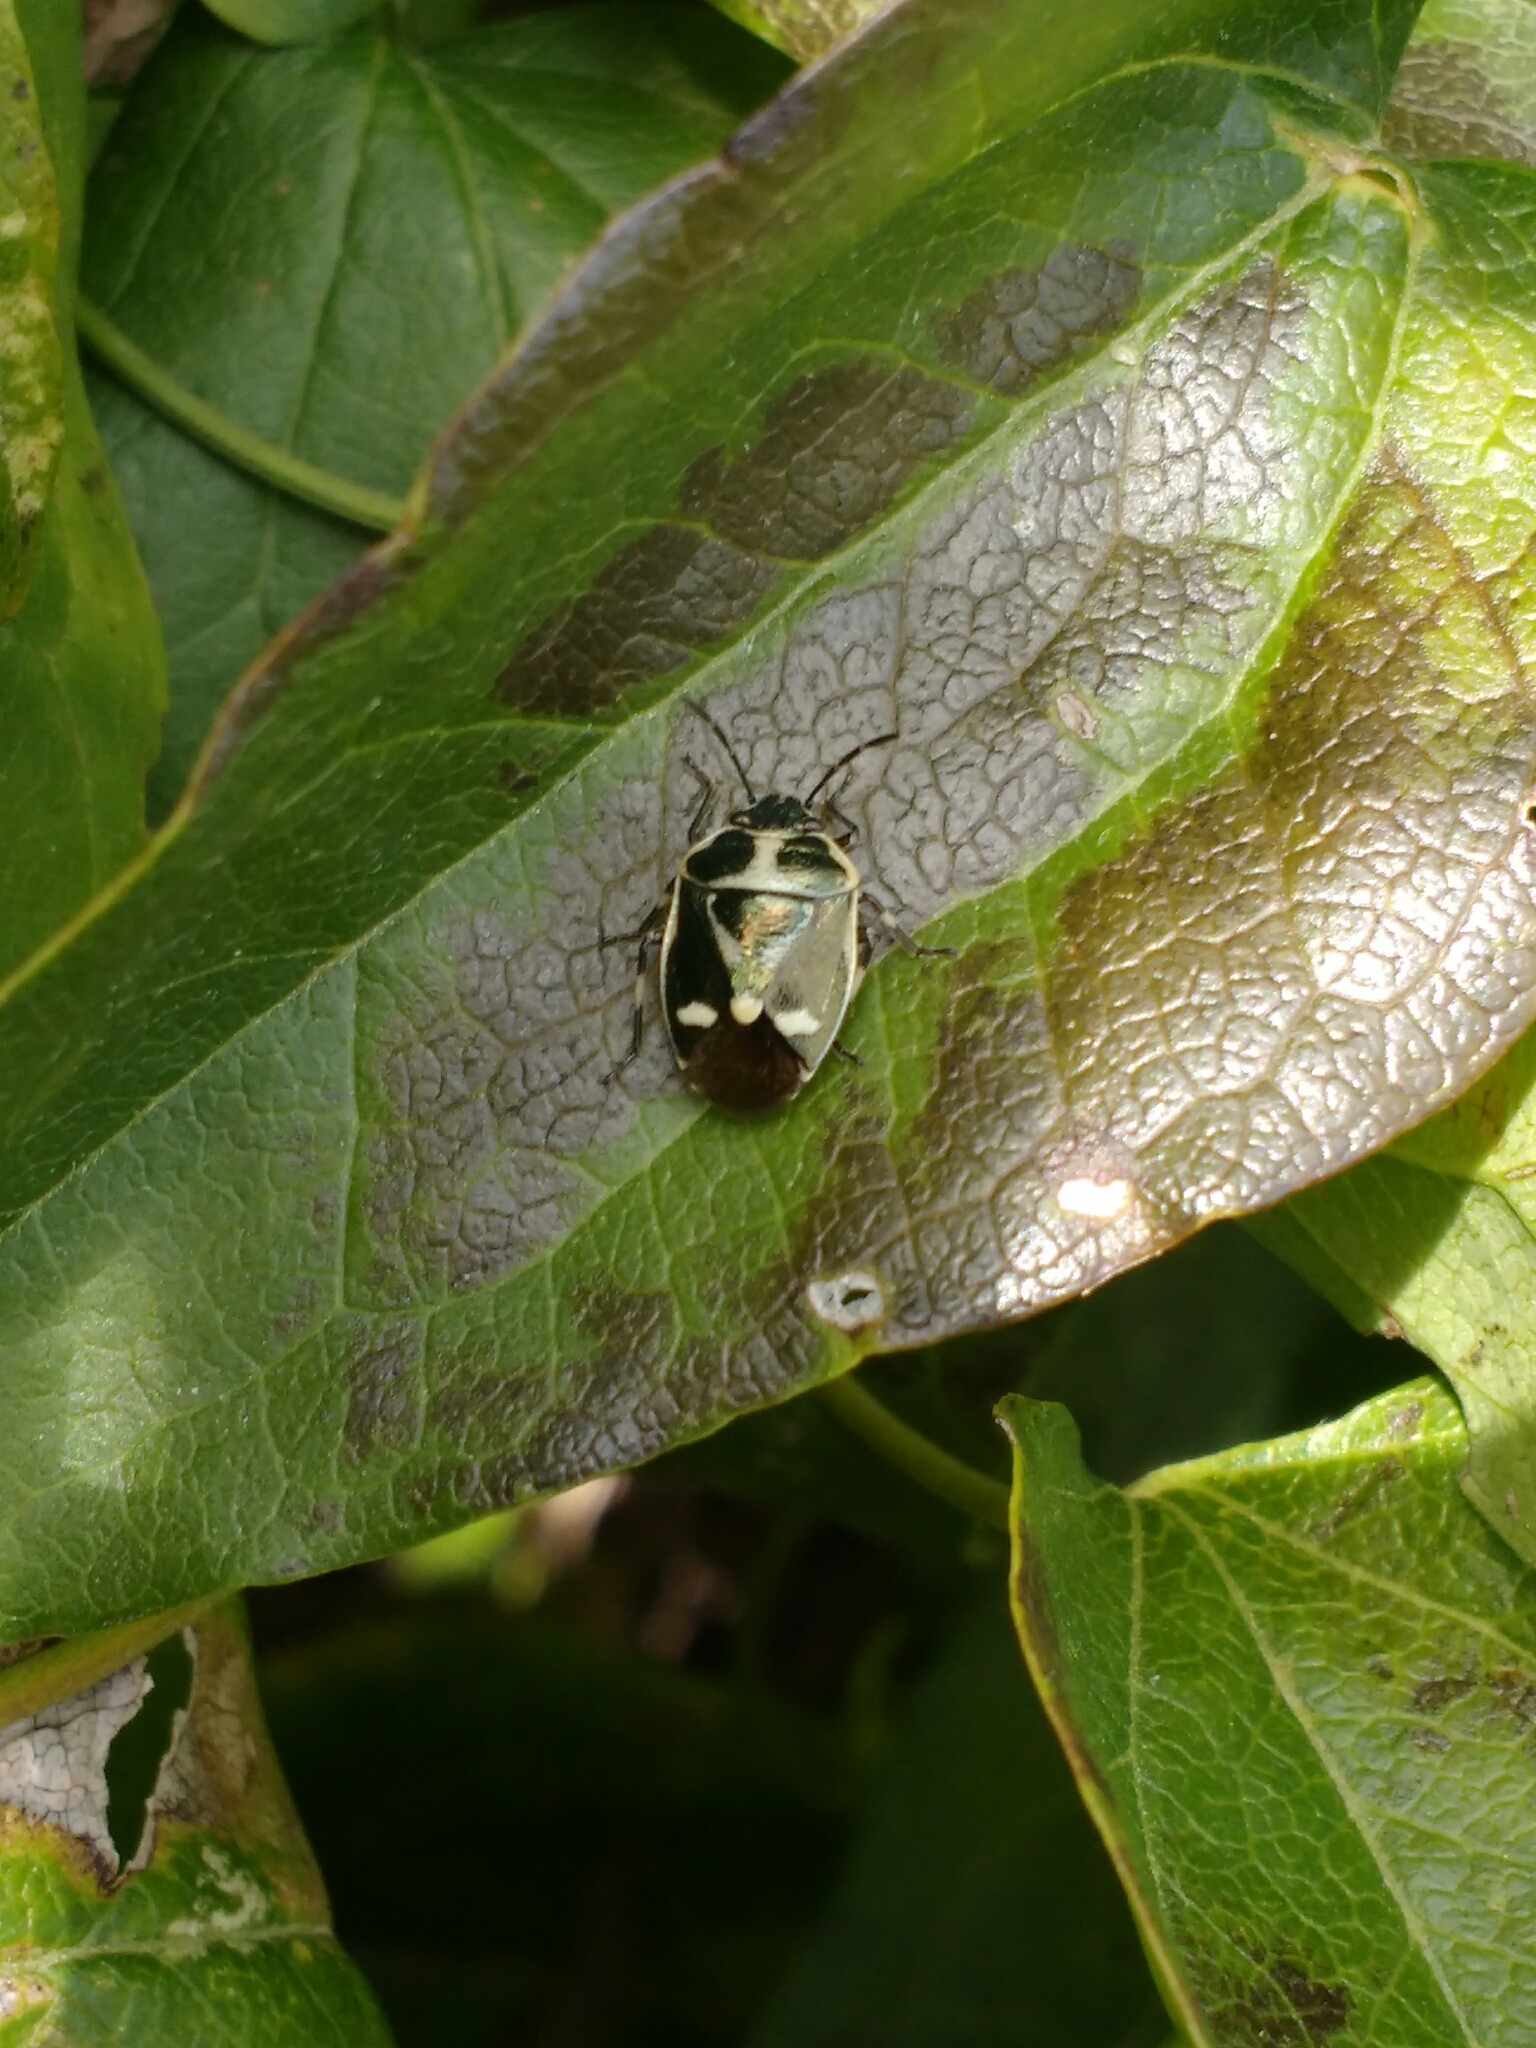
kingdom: Animalia
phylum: Arthropoda
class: Insecta
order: Hemiptera
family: Pentatomidae
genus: Eurydema
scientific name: Eurydema oleracea
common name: Cabbage bug
